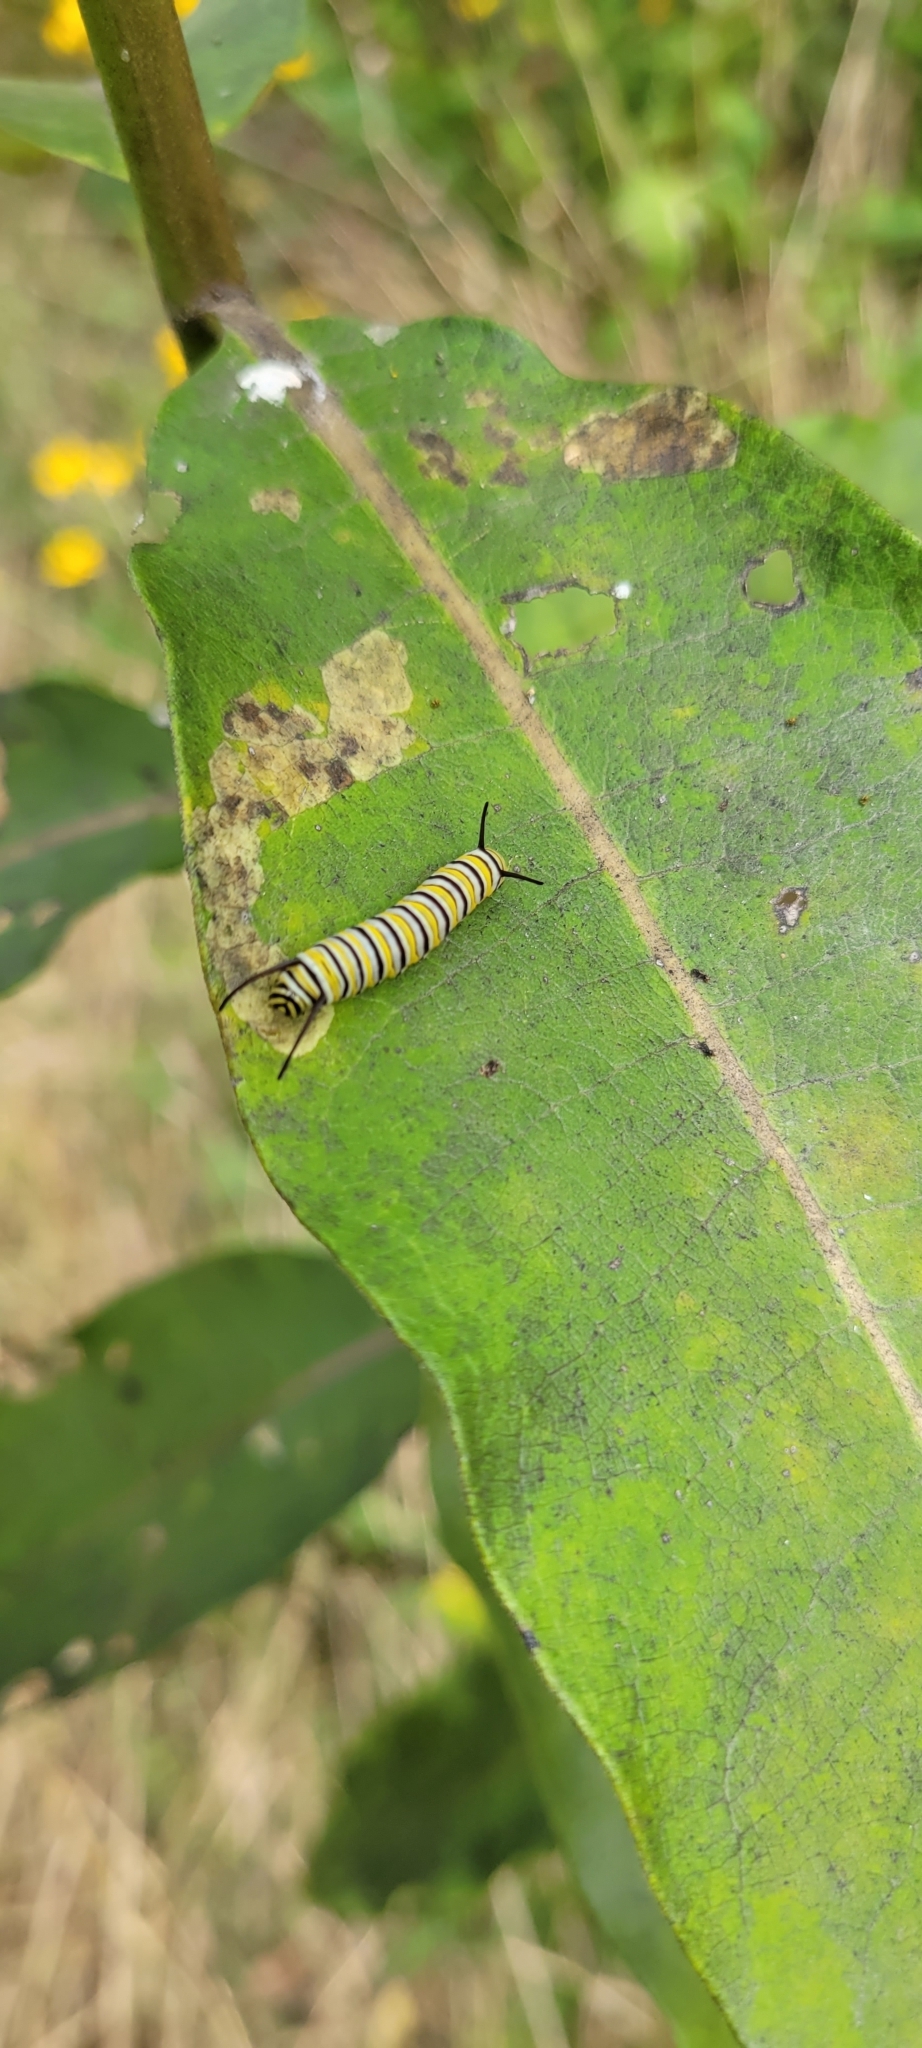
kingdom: Animalia
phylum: Arthropoda
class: Insecta
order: Lepidoptera
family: Nymphalidae
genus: Danaus
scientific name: Danaus plexippus
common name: Monarch
